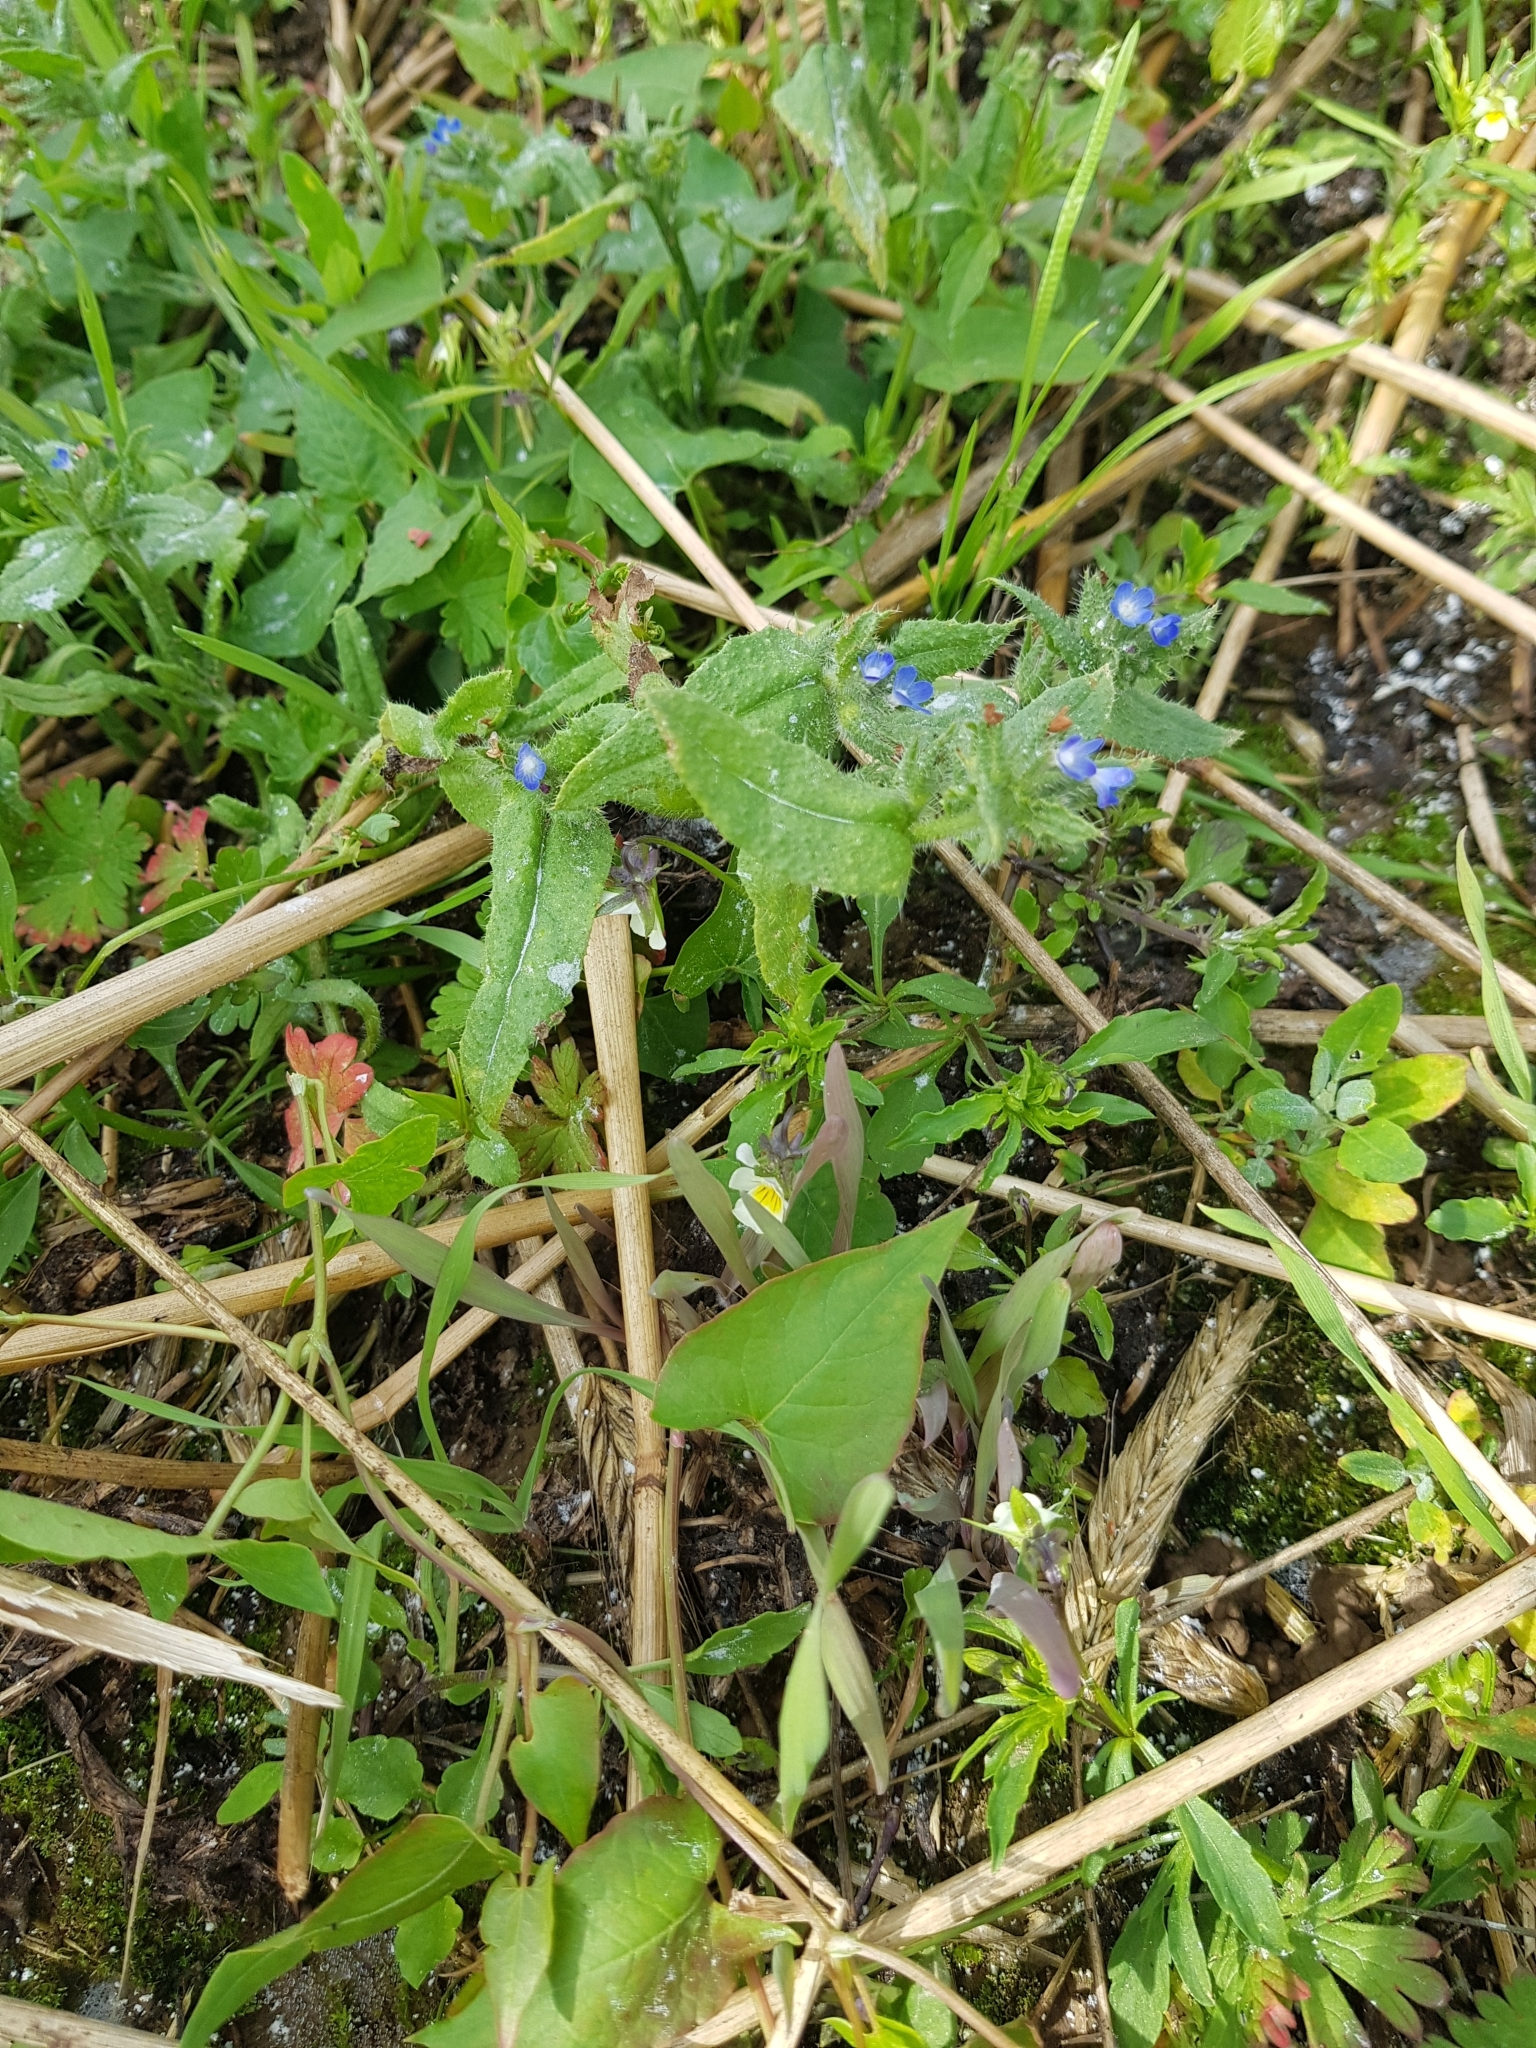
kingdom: Plantae
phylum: Tracheophyta
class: Magnoliopsida
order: Boraginales
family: Boraginaceae
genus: Lycopsis
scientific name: Lycopsis arvensis
